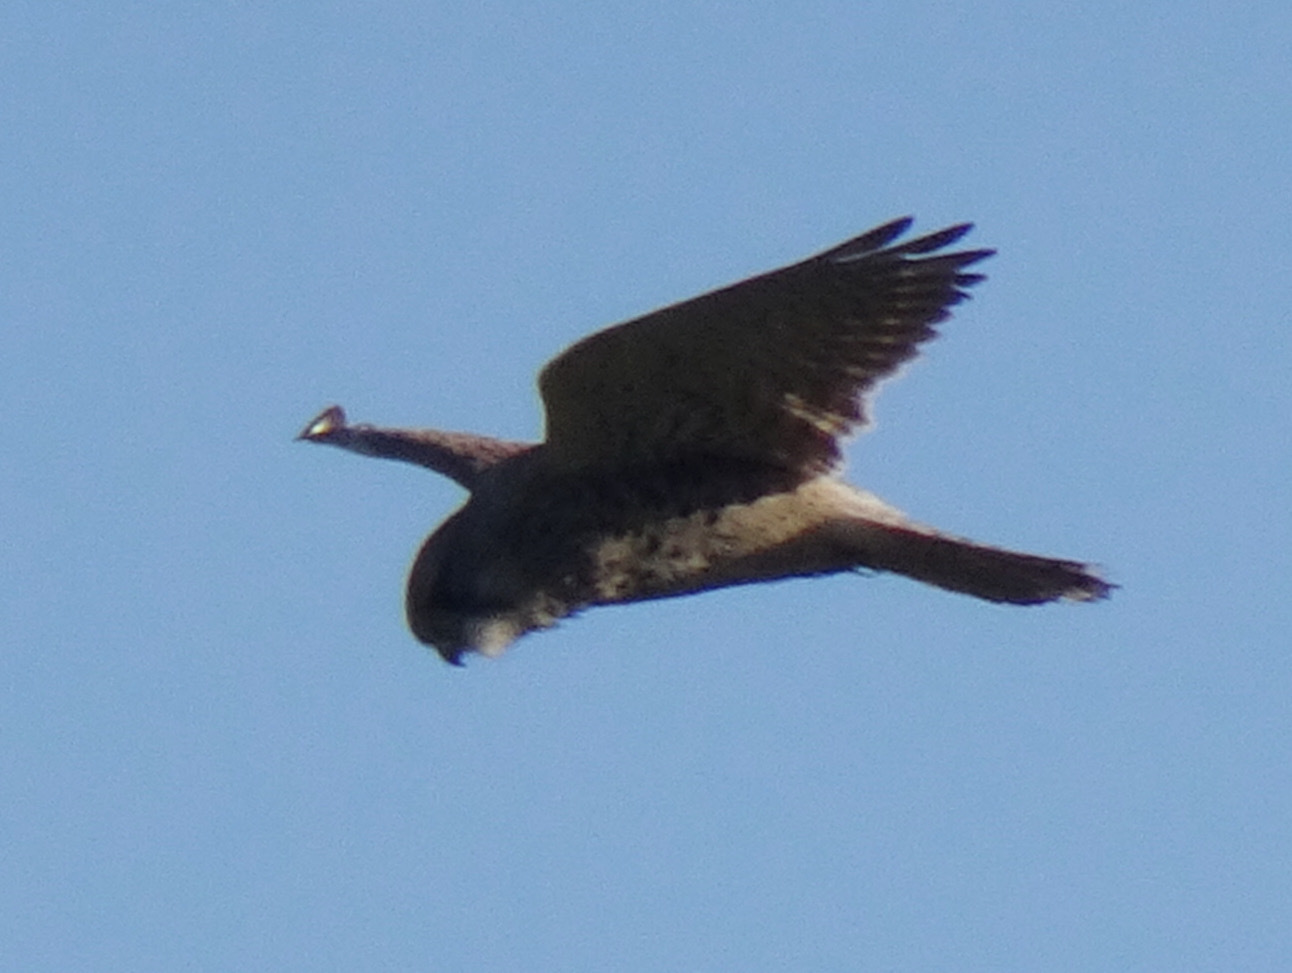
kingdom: Animalia
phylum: Chordata
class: Aves
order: Falconiformes
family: Falconidae
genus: Falco
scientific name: Falco tinnunculus
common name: Common kestrel
